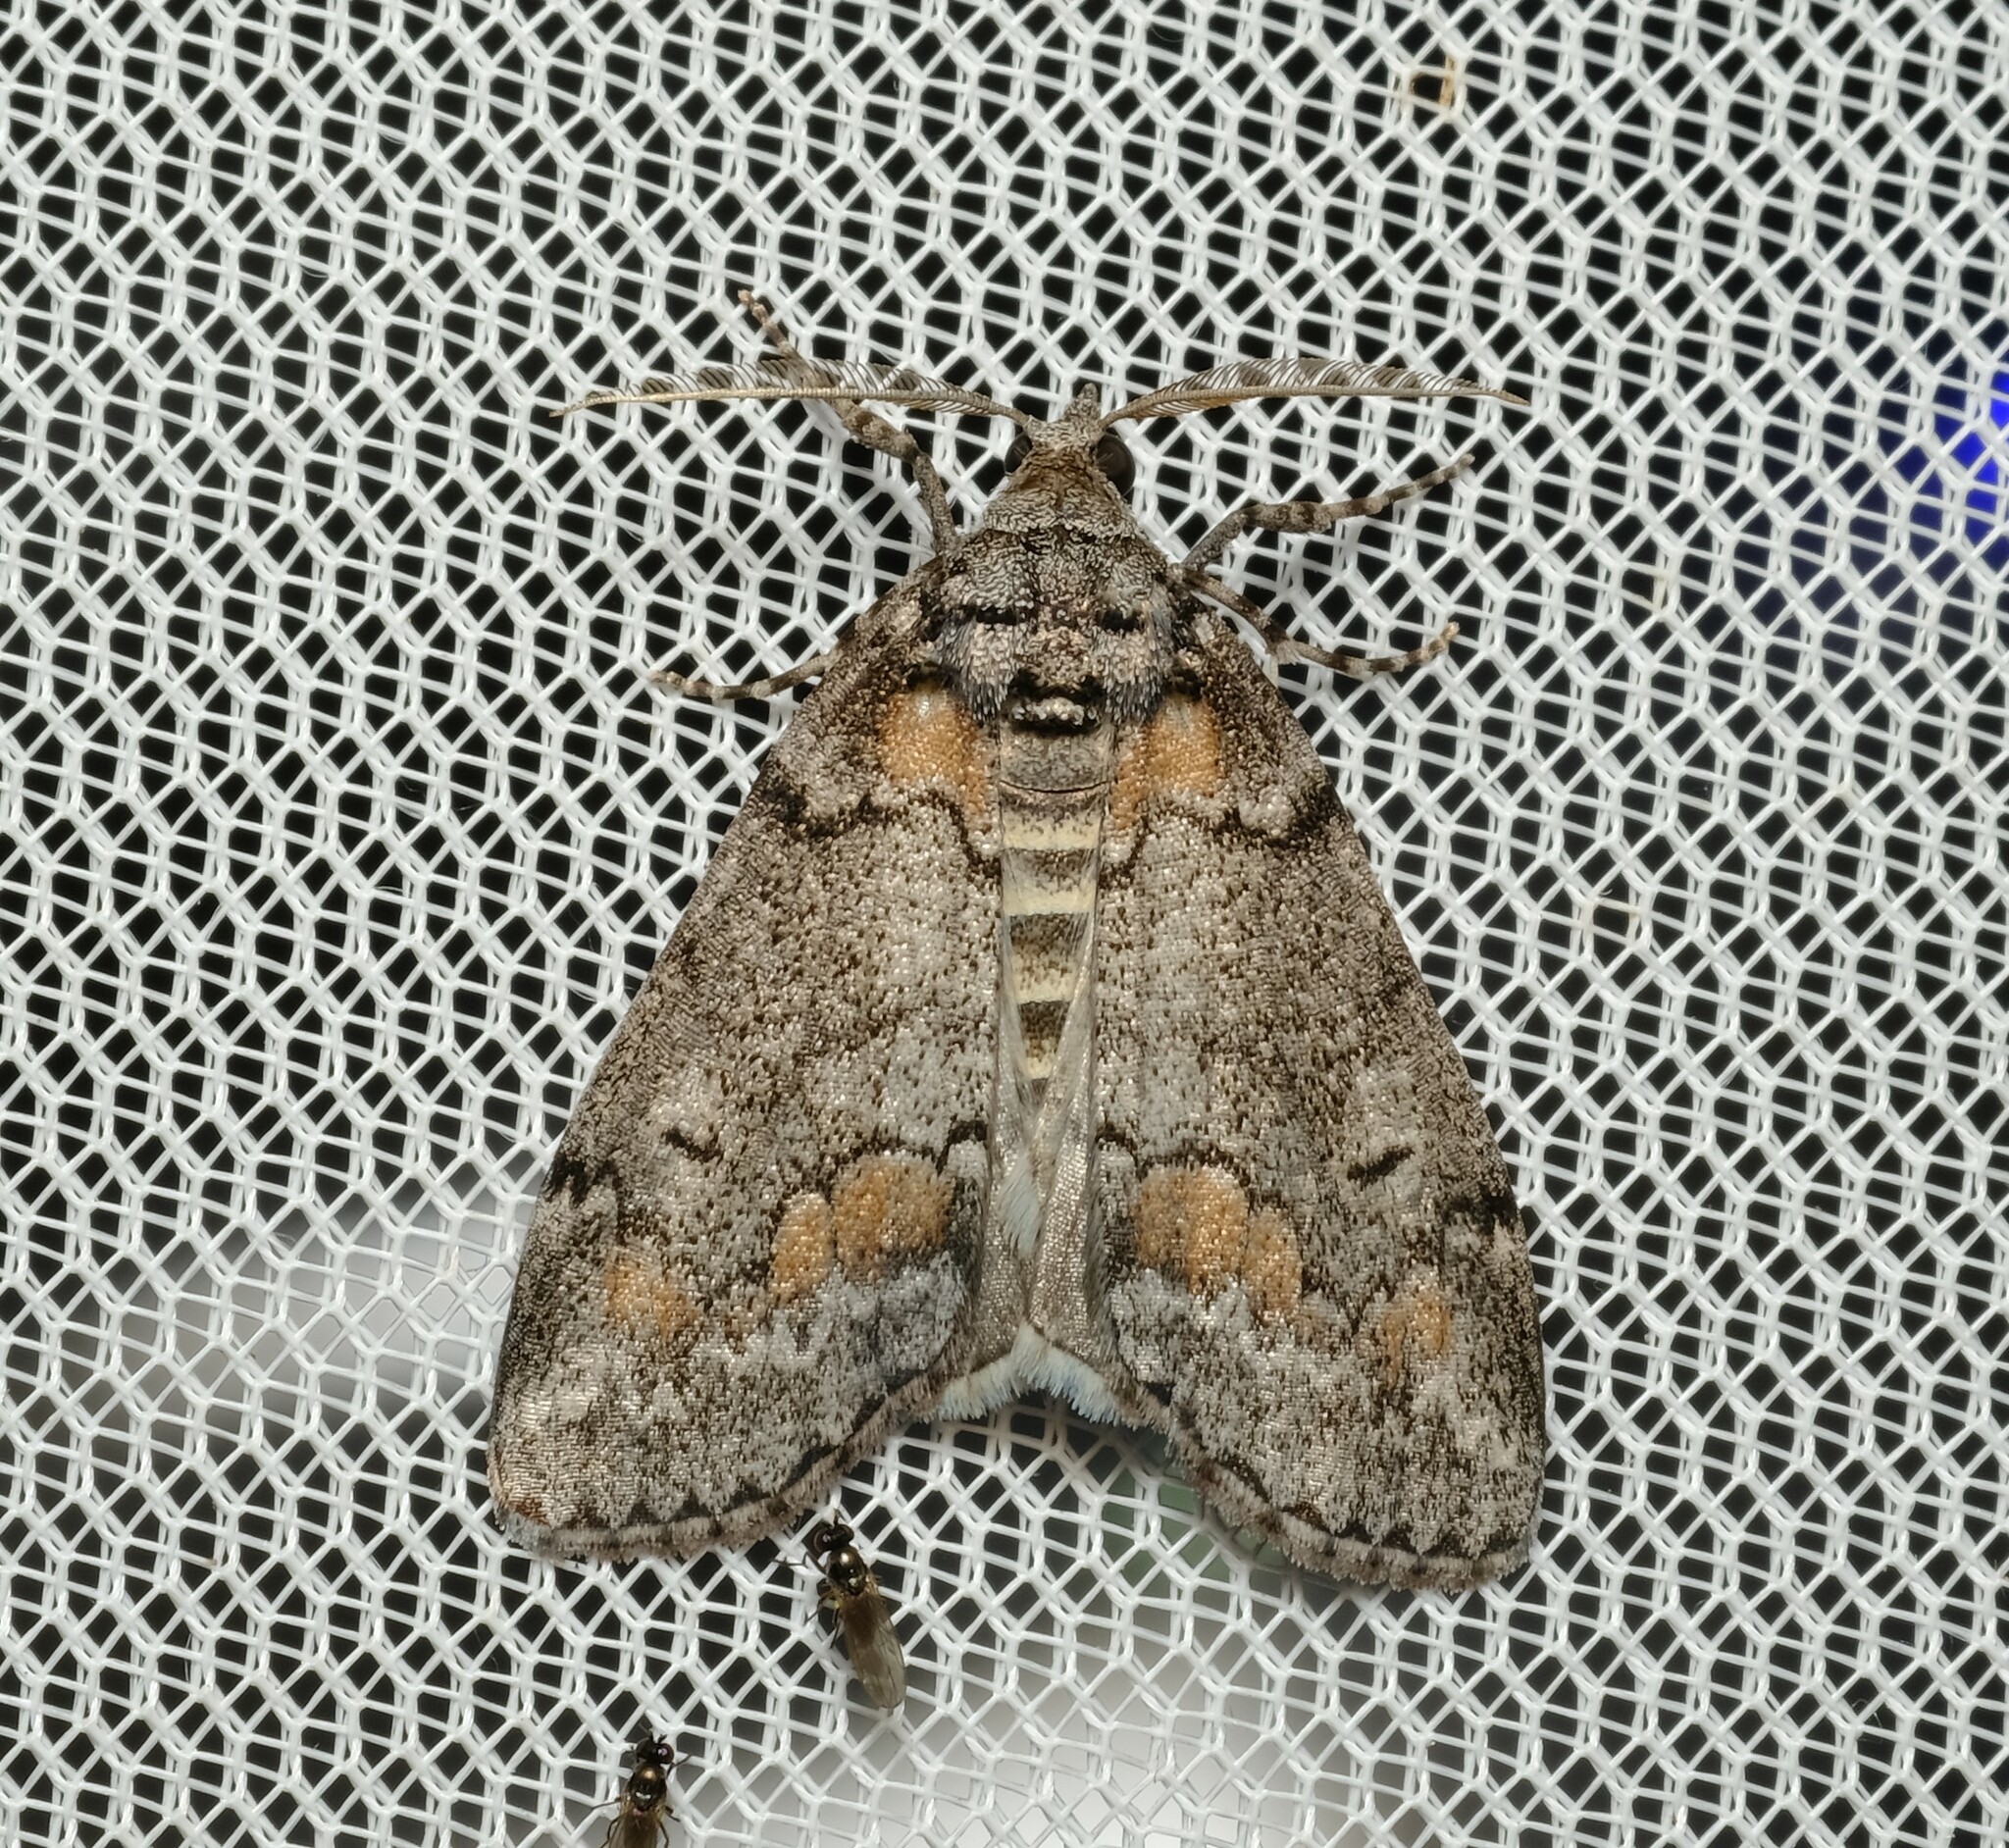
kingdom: Animalia
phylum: Arthropoda
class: Insecta
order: Lepidoptera
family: Geometridae
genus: Smyriodes
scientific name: Smyriodes trigramma
